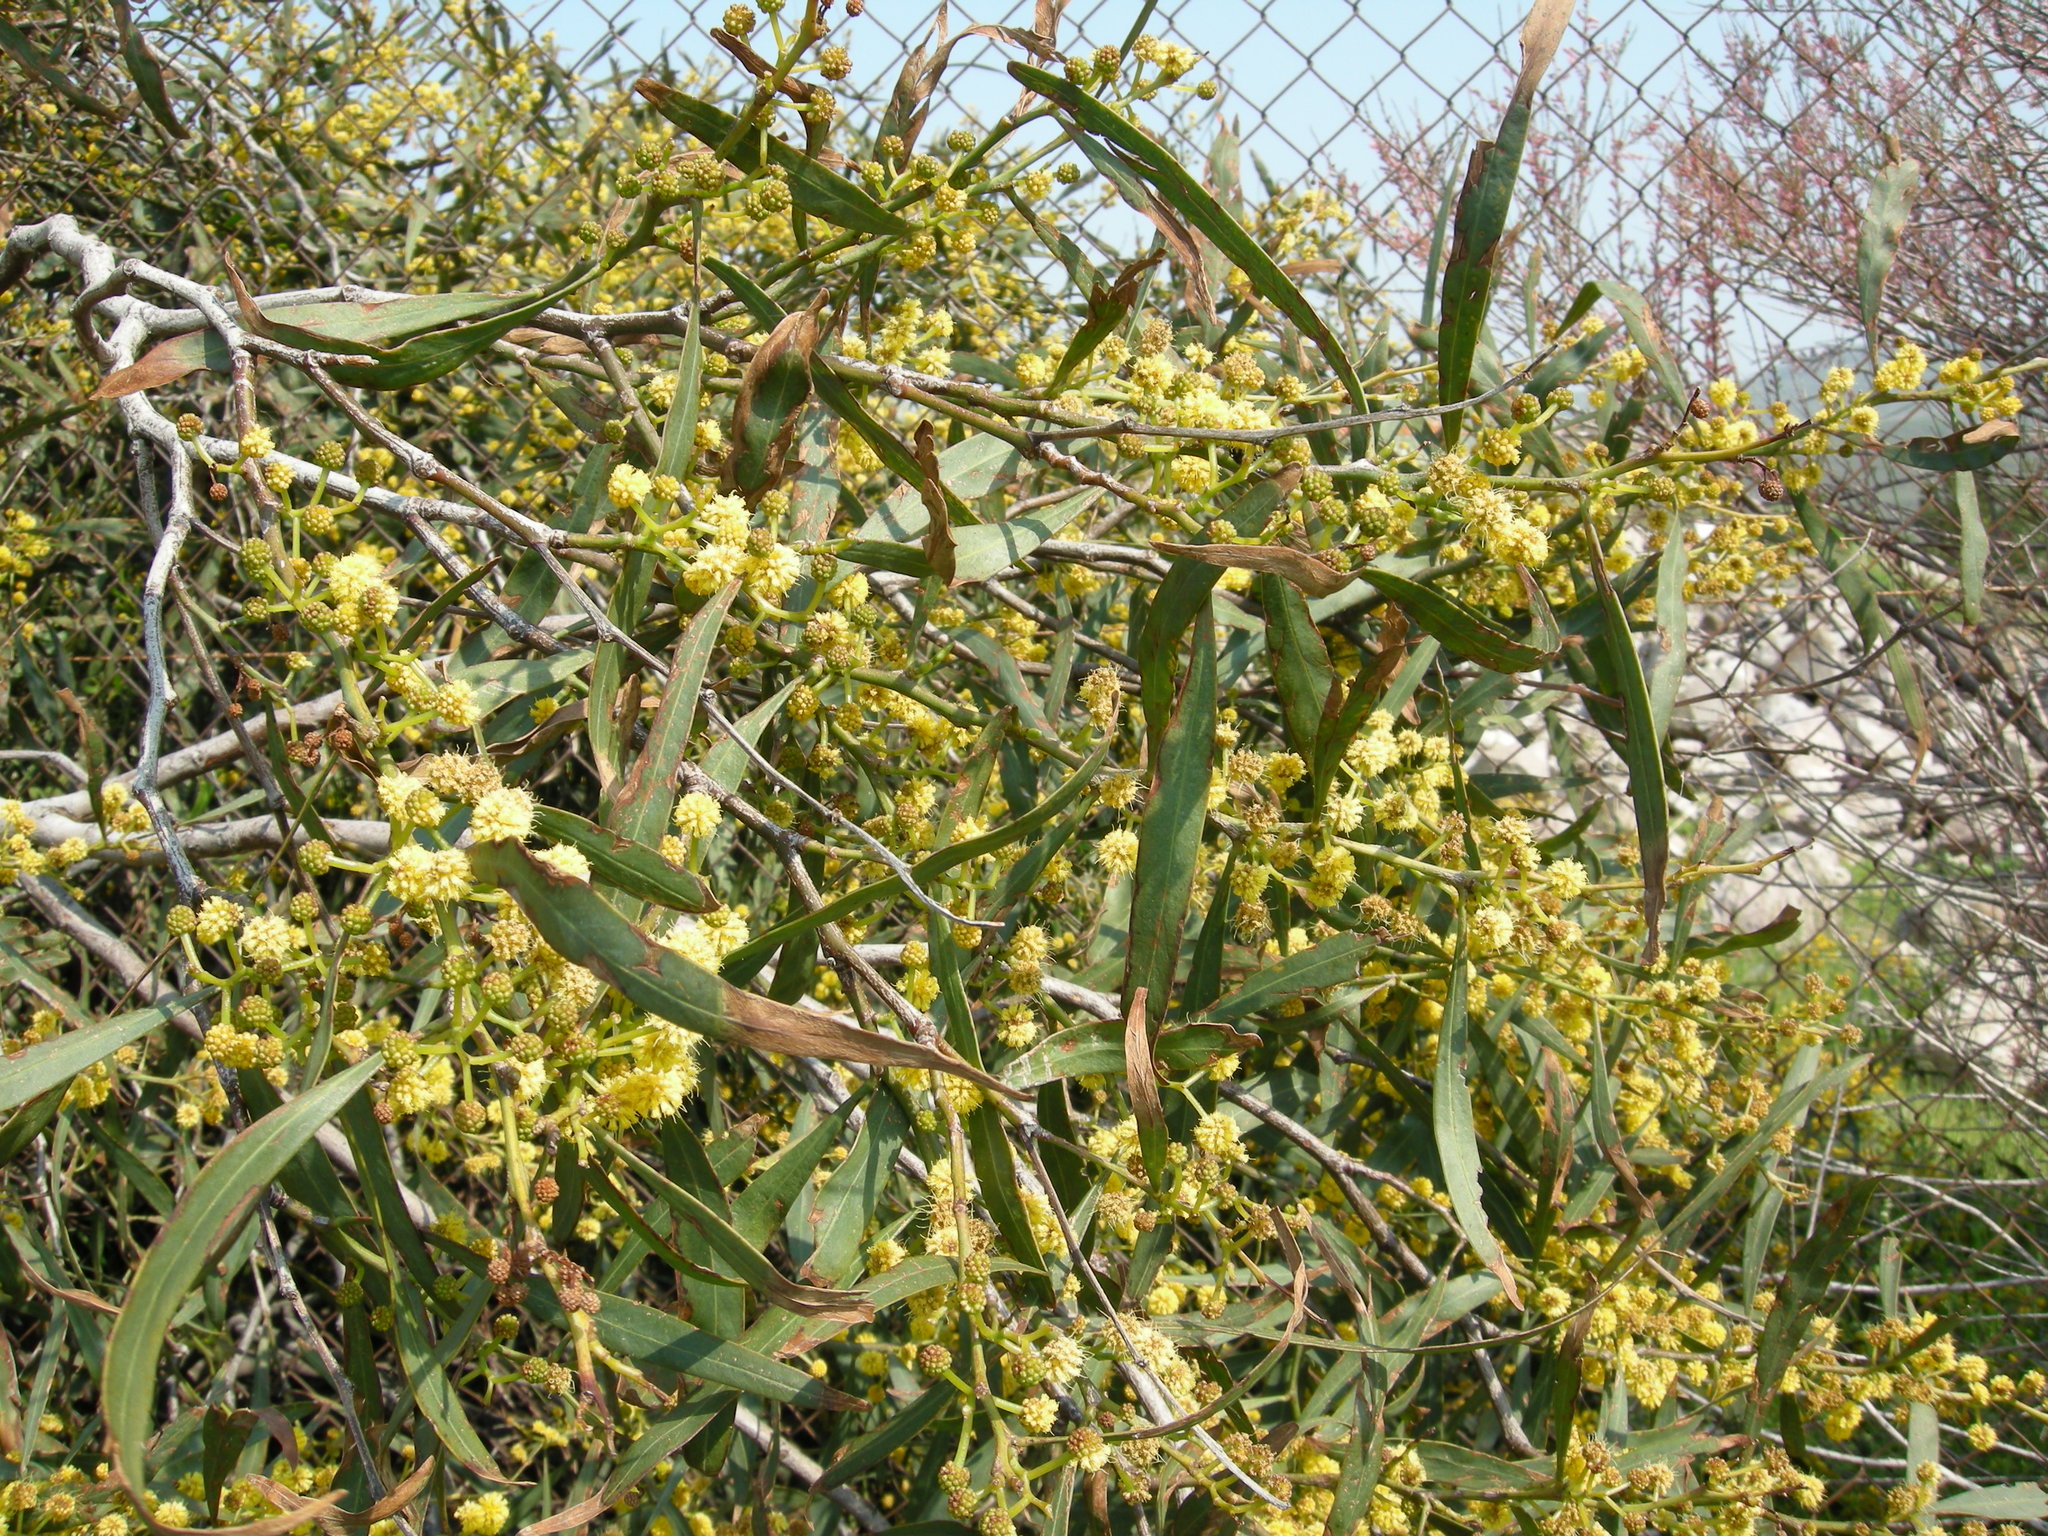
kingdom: Plantae
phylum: Tracheophyta
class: Magnoliopsida
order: Fabales
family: Fabaceae
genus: Acacia
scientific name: Acacia saligna
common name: Orange wattle
